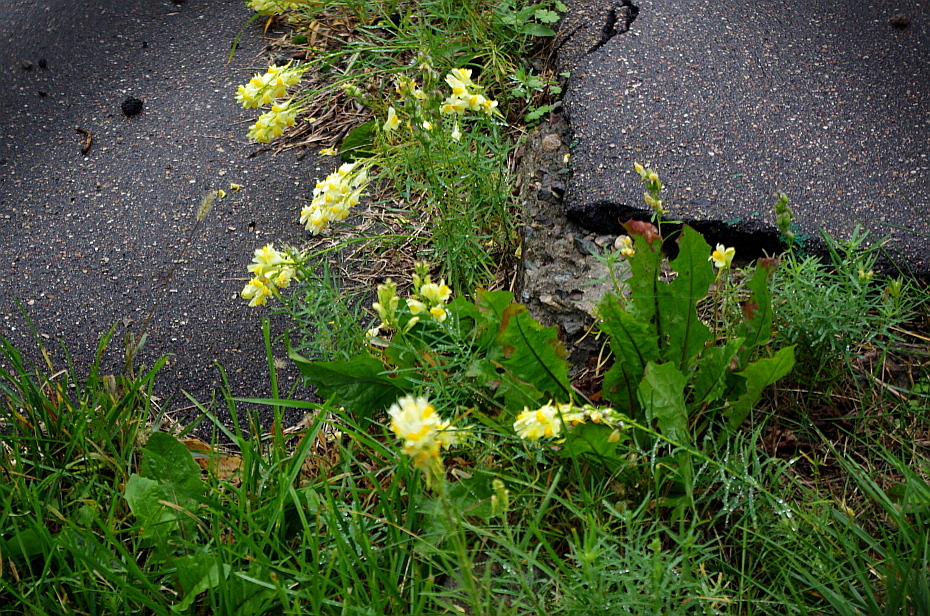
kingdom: Plantae
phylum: Tracheophyta
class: Magnoliopsida
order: Lamiales
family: Plantaginaceae
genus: Linaria
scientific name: Linaria vulgaris
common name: Butter and eggs
